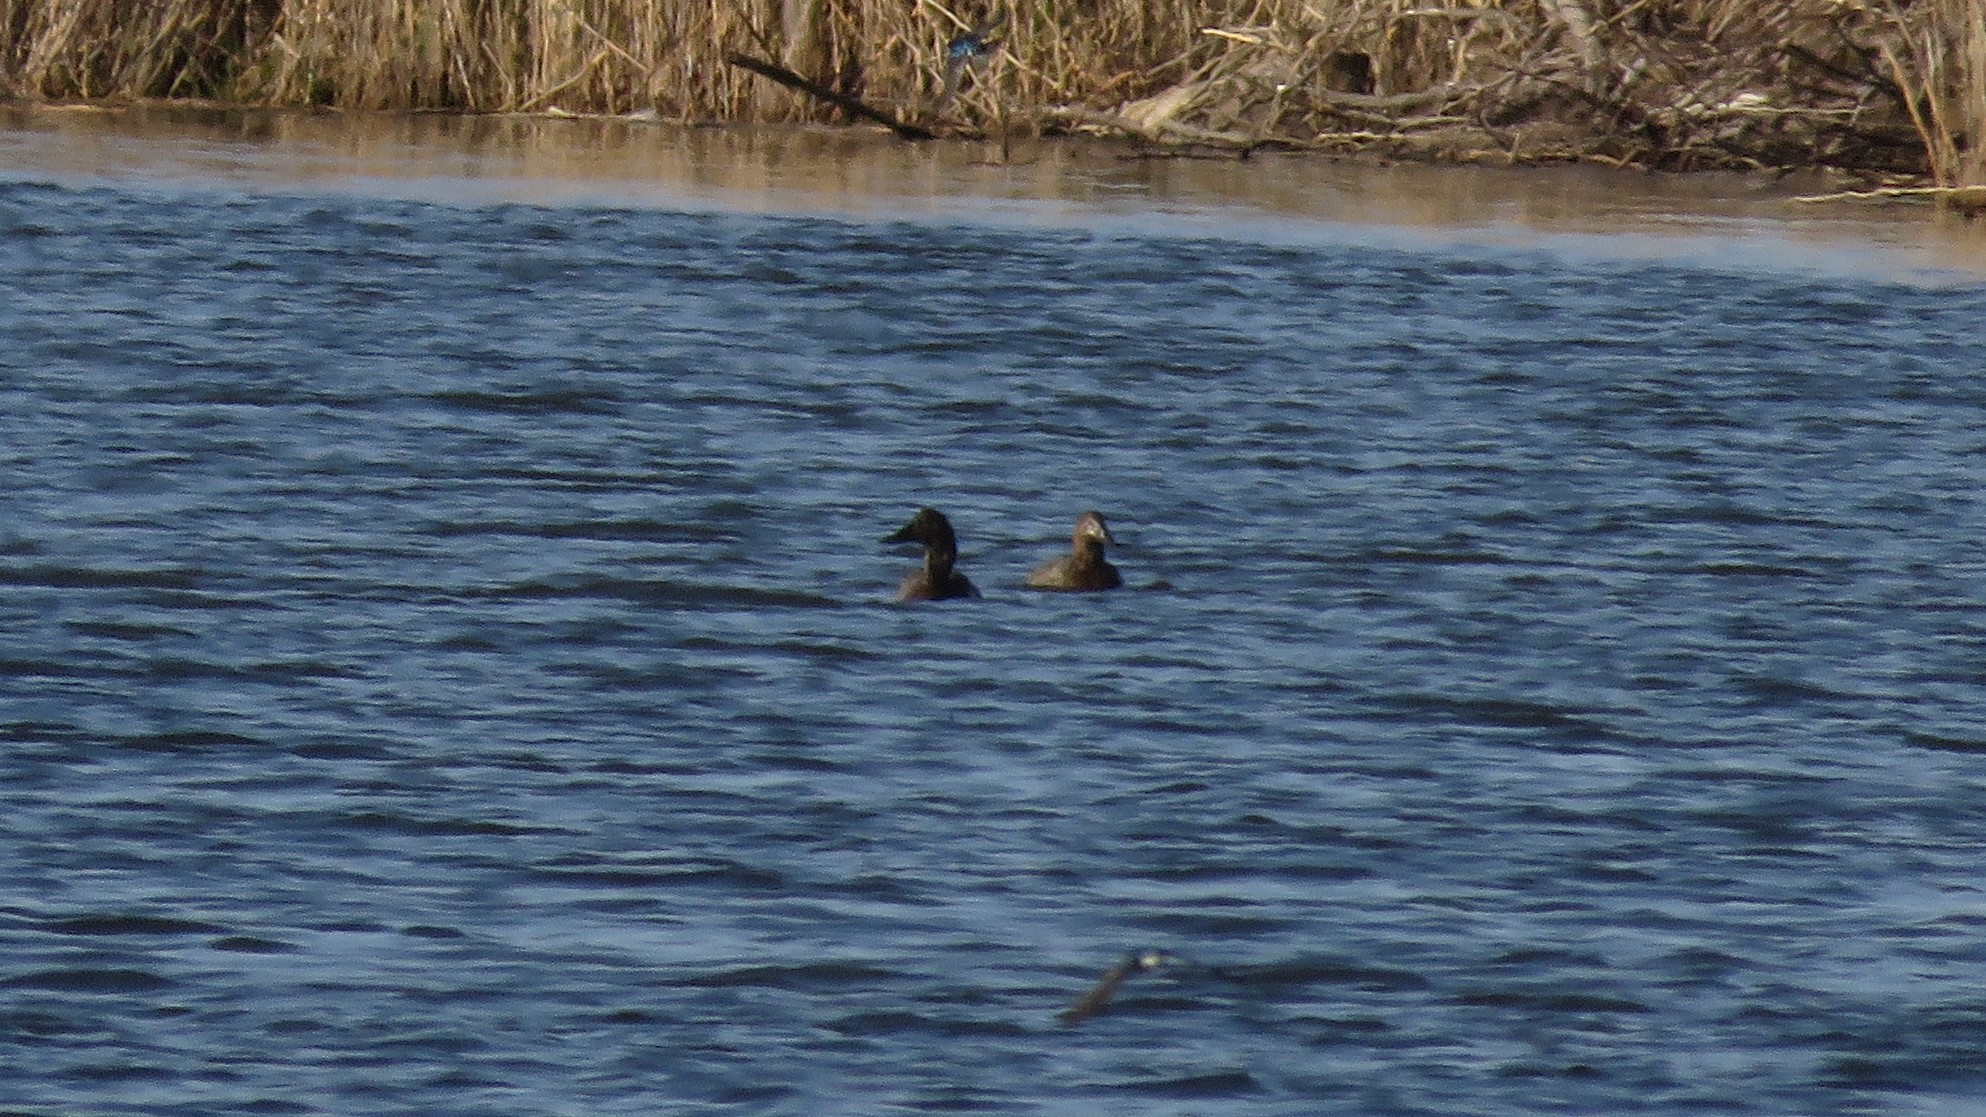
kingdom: Animalia
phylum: Chordata
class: Aves
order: Anseriformes
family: Anatidae
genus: Aythya
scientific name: Aythya valisineria
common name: Canvasback
